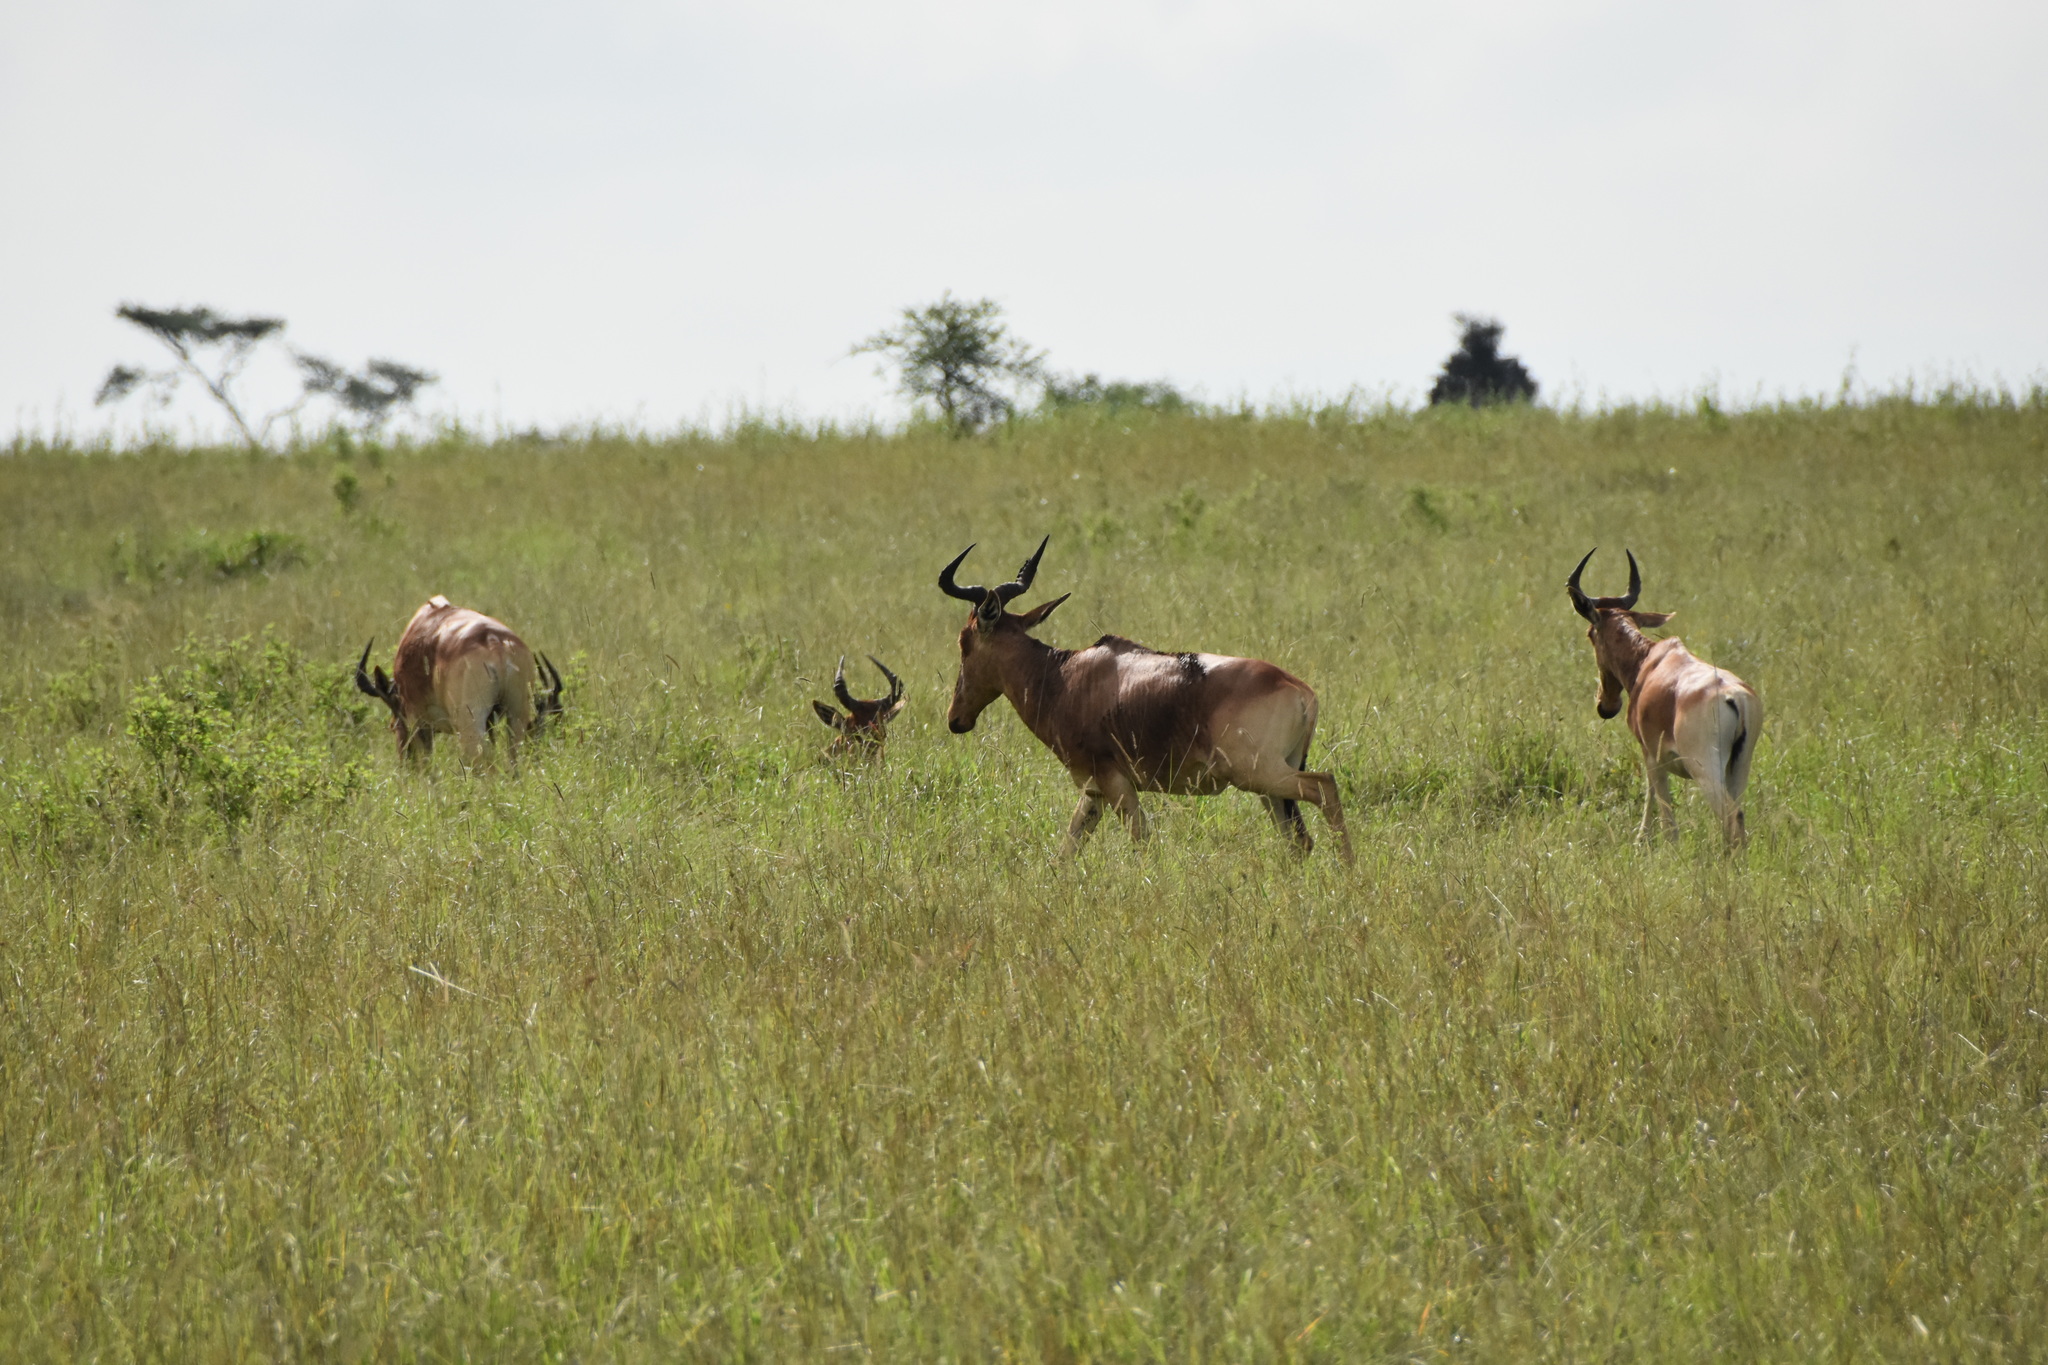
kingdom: Animalia
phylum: Chordata
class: Mammalia
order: Artiodactyla
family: Bovidae
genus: Alcelaphus
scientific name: Alcelaphus buselaphus
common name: Hartebeest
